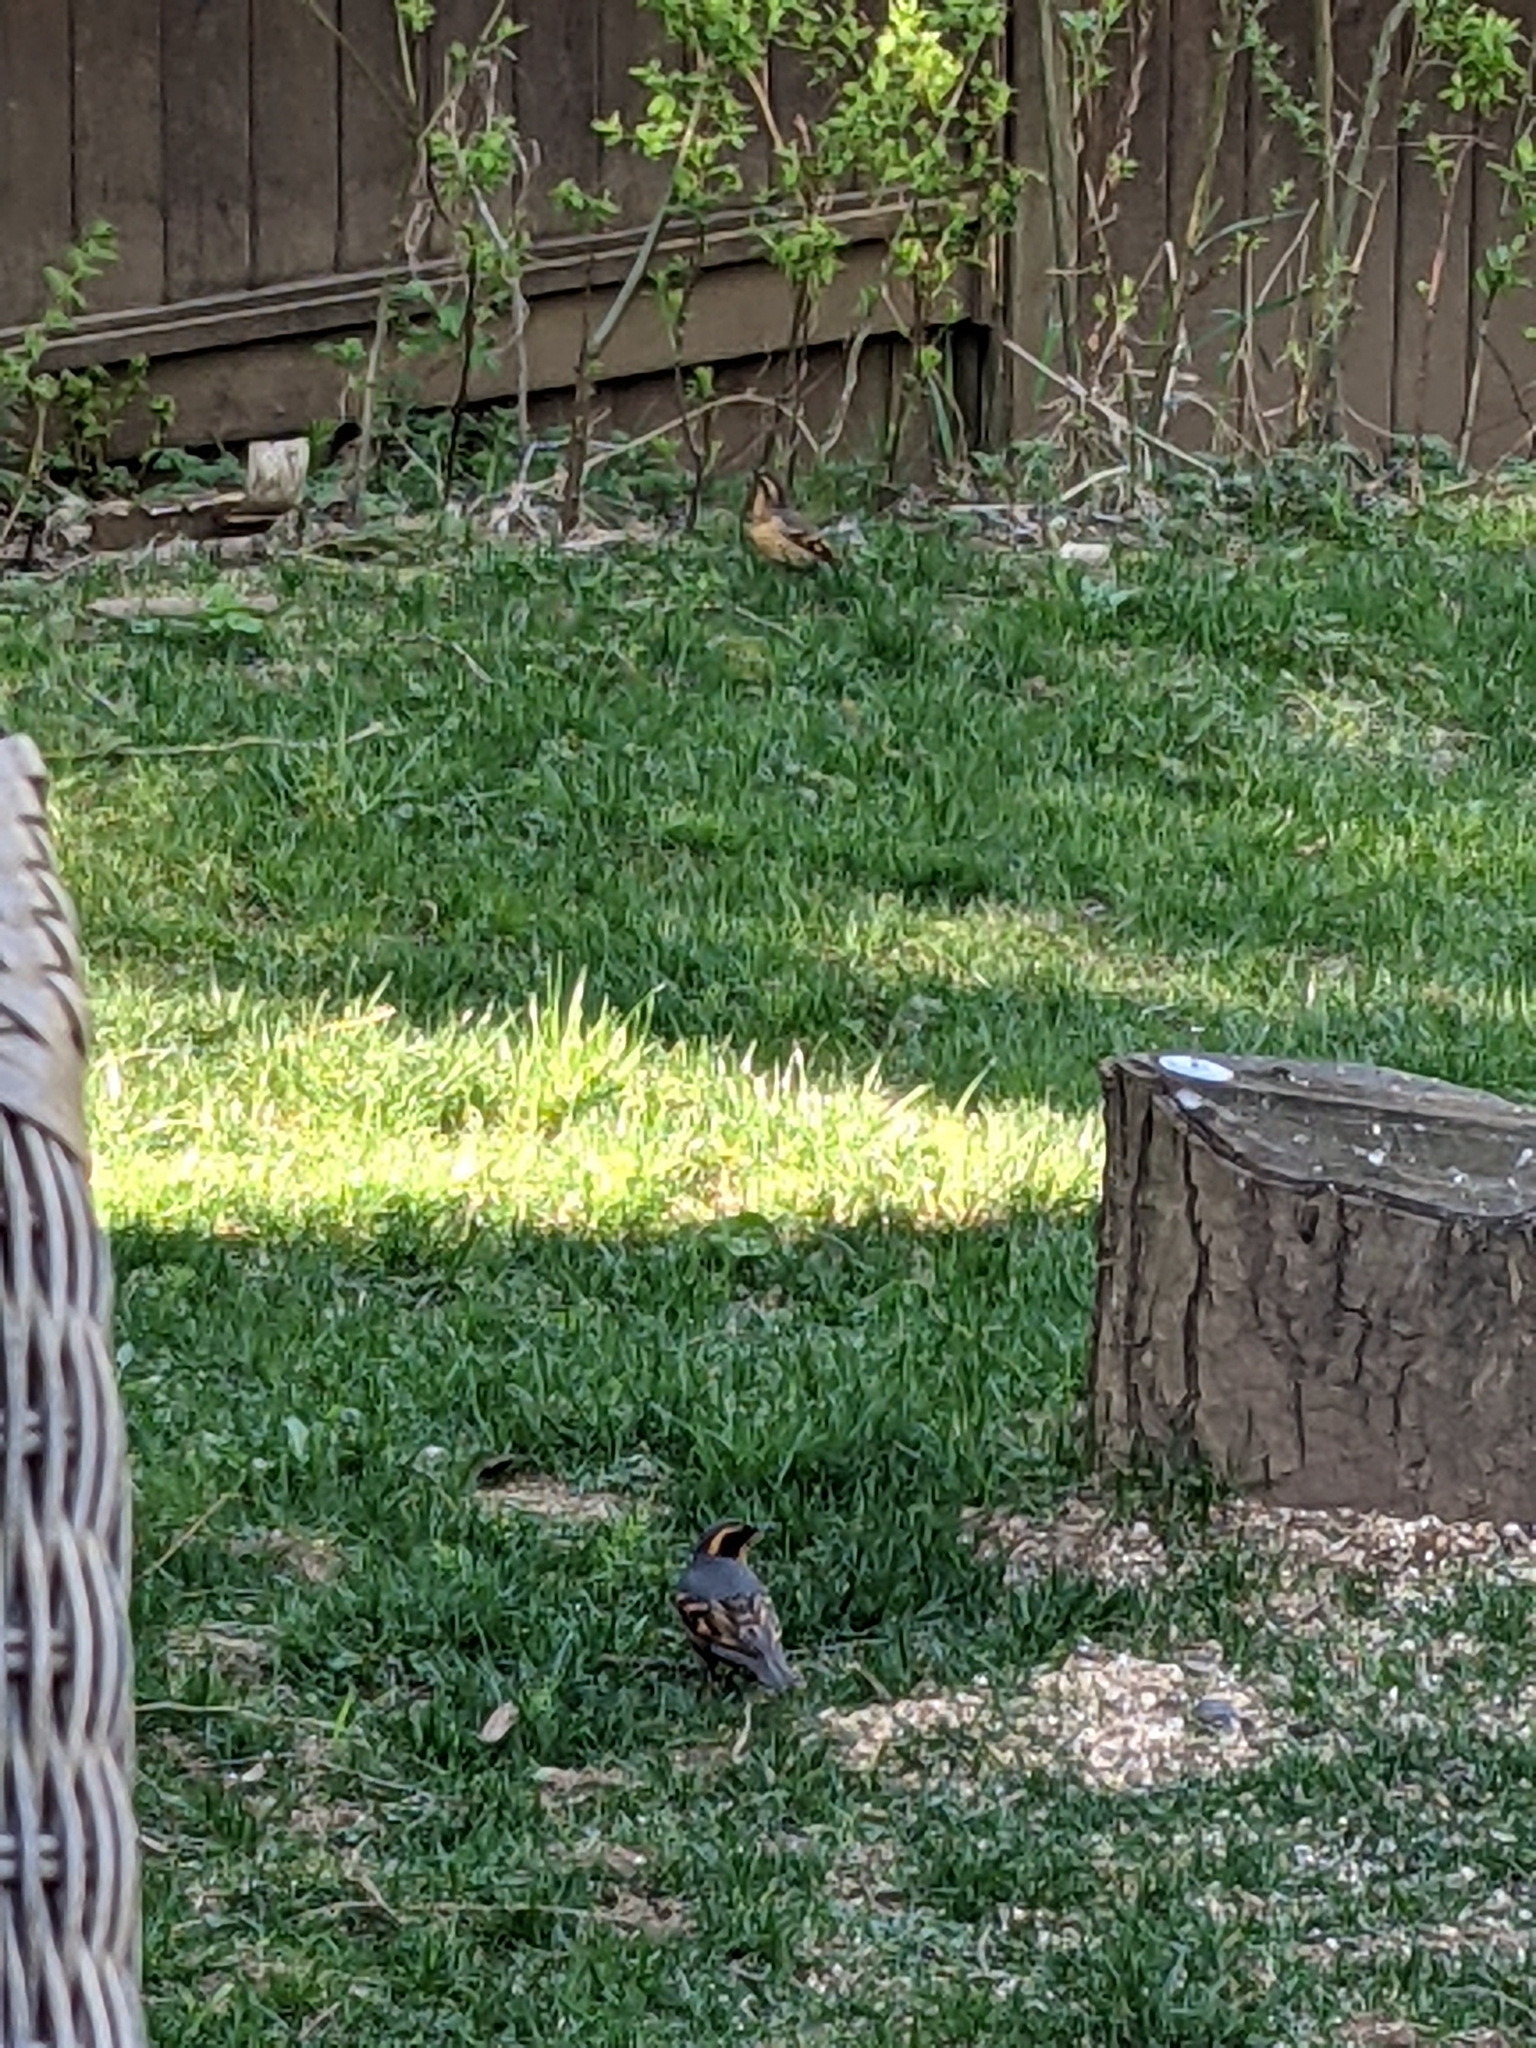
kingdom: Animalia
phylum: Chordata
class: Mammalia
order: Rodentia
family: Sciuridae
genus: Tamias
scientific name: Tamias townsendii
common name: Townsend's chipmunk
